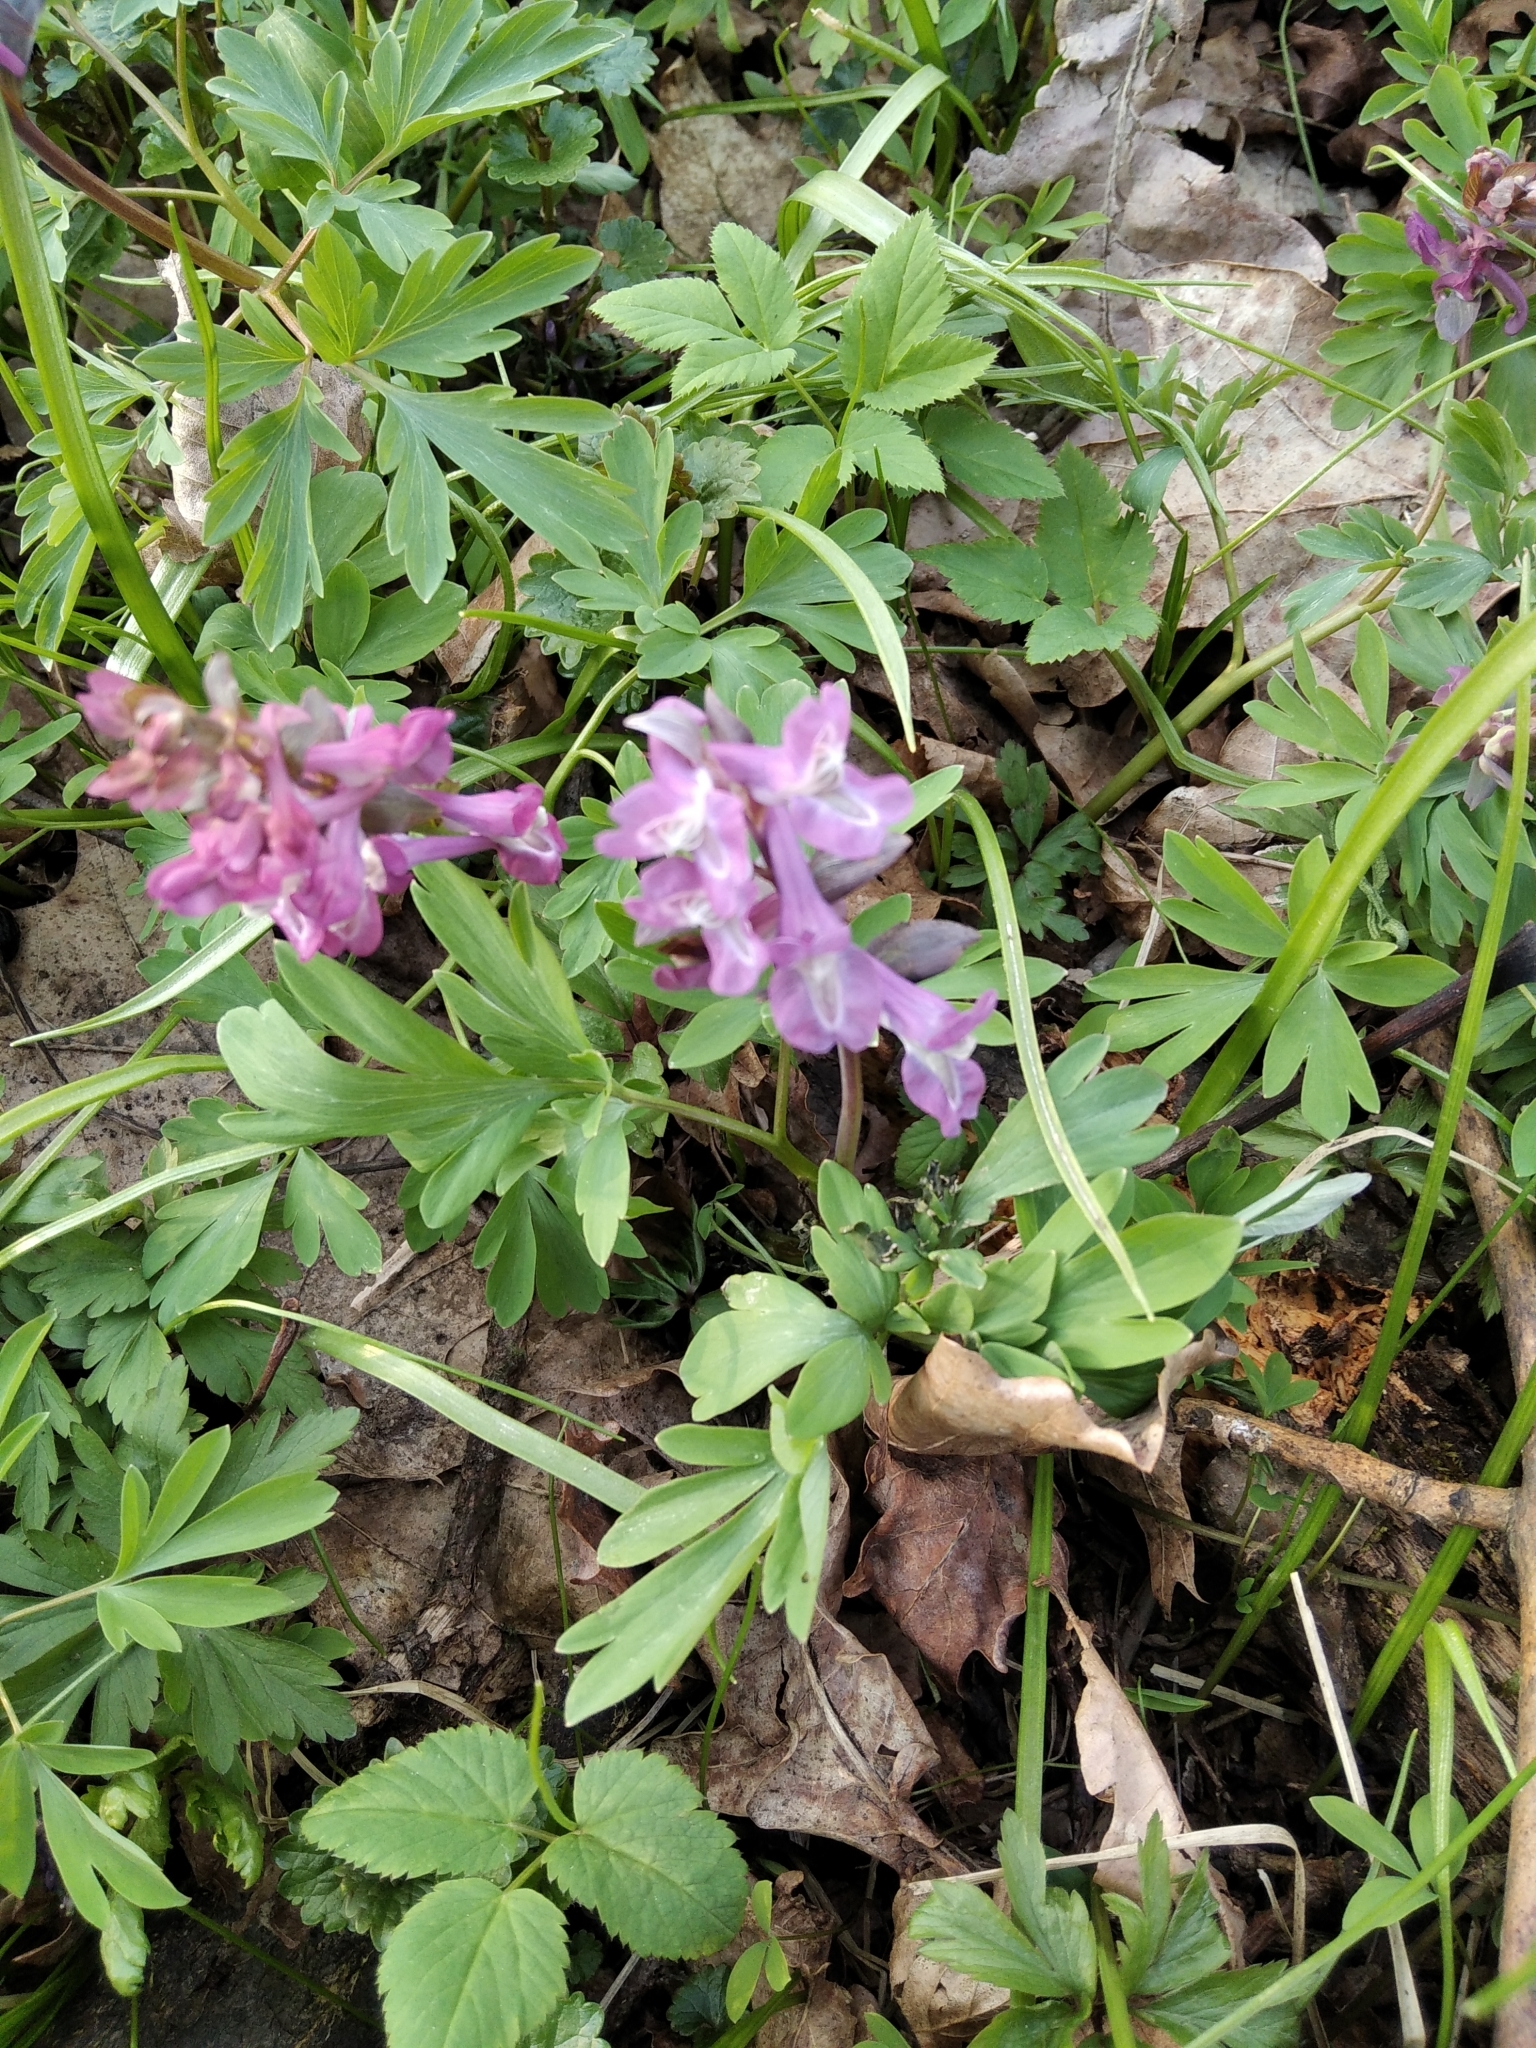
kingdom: Plantae
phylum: Tracheophyta
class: Magnoliopsida
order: Ranunculales
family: Papaveraceae
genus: Corydalis
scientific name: Corydalis cava
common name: Hollowroot
